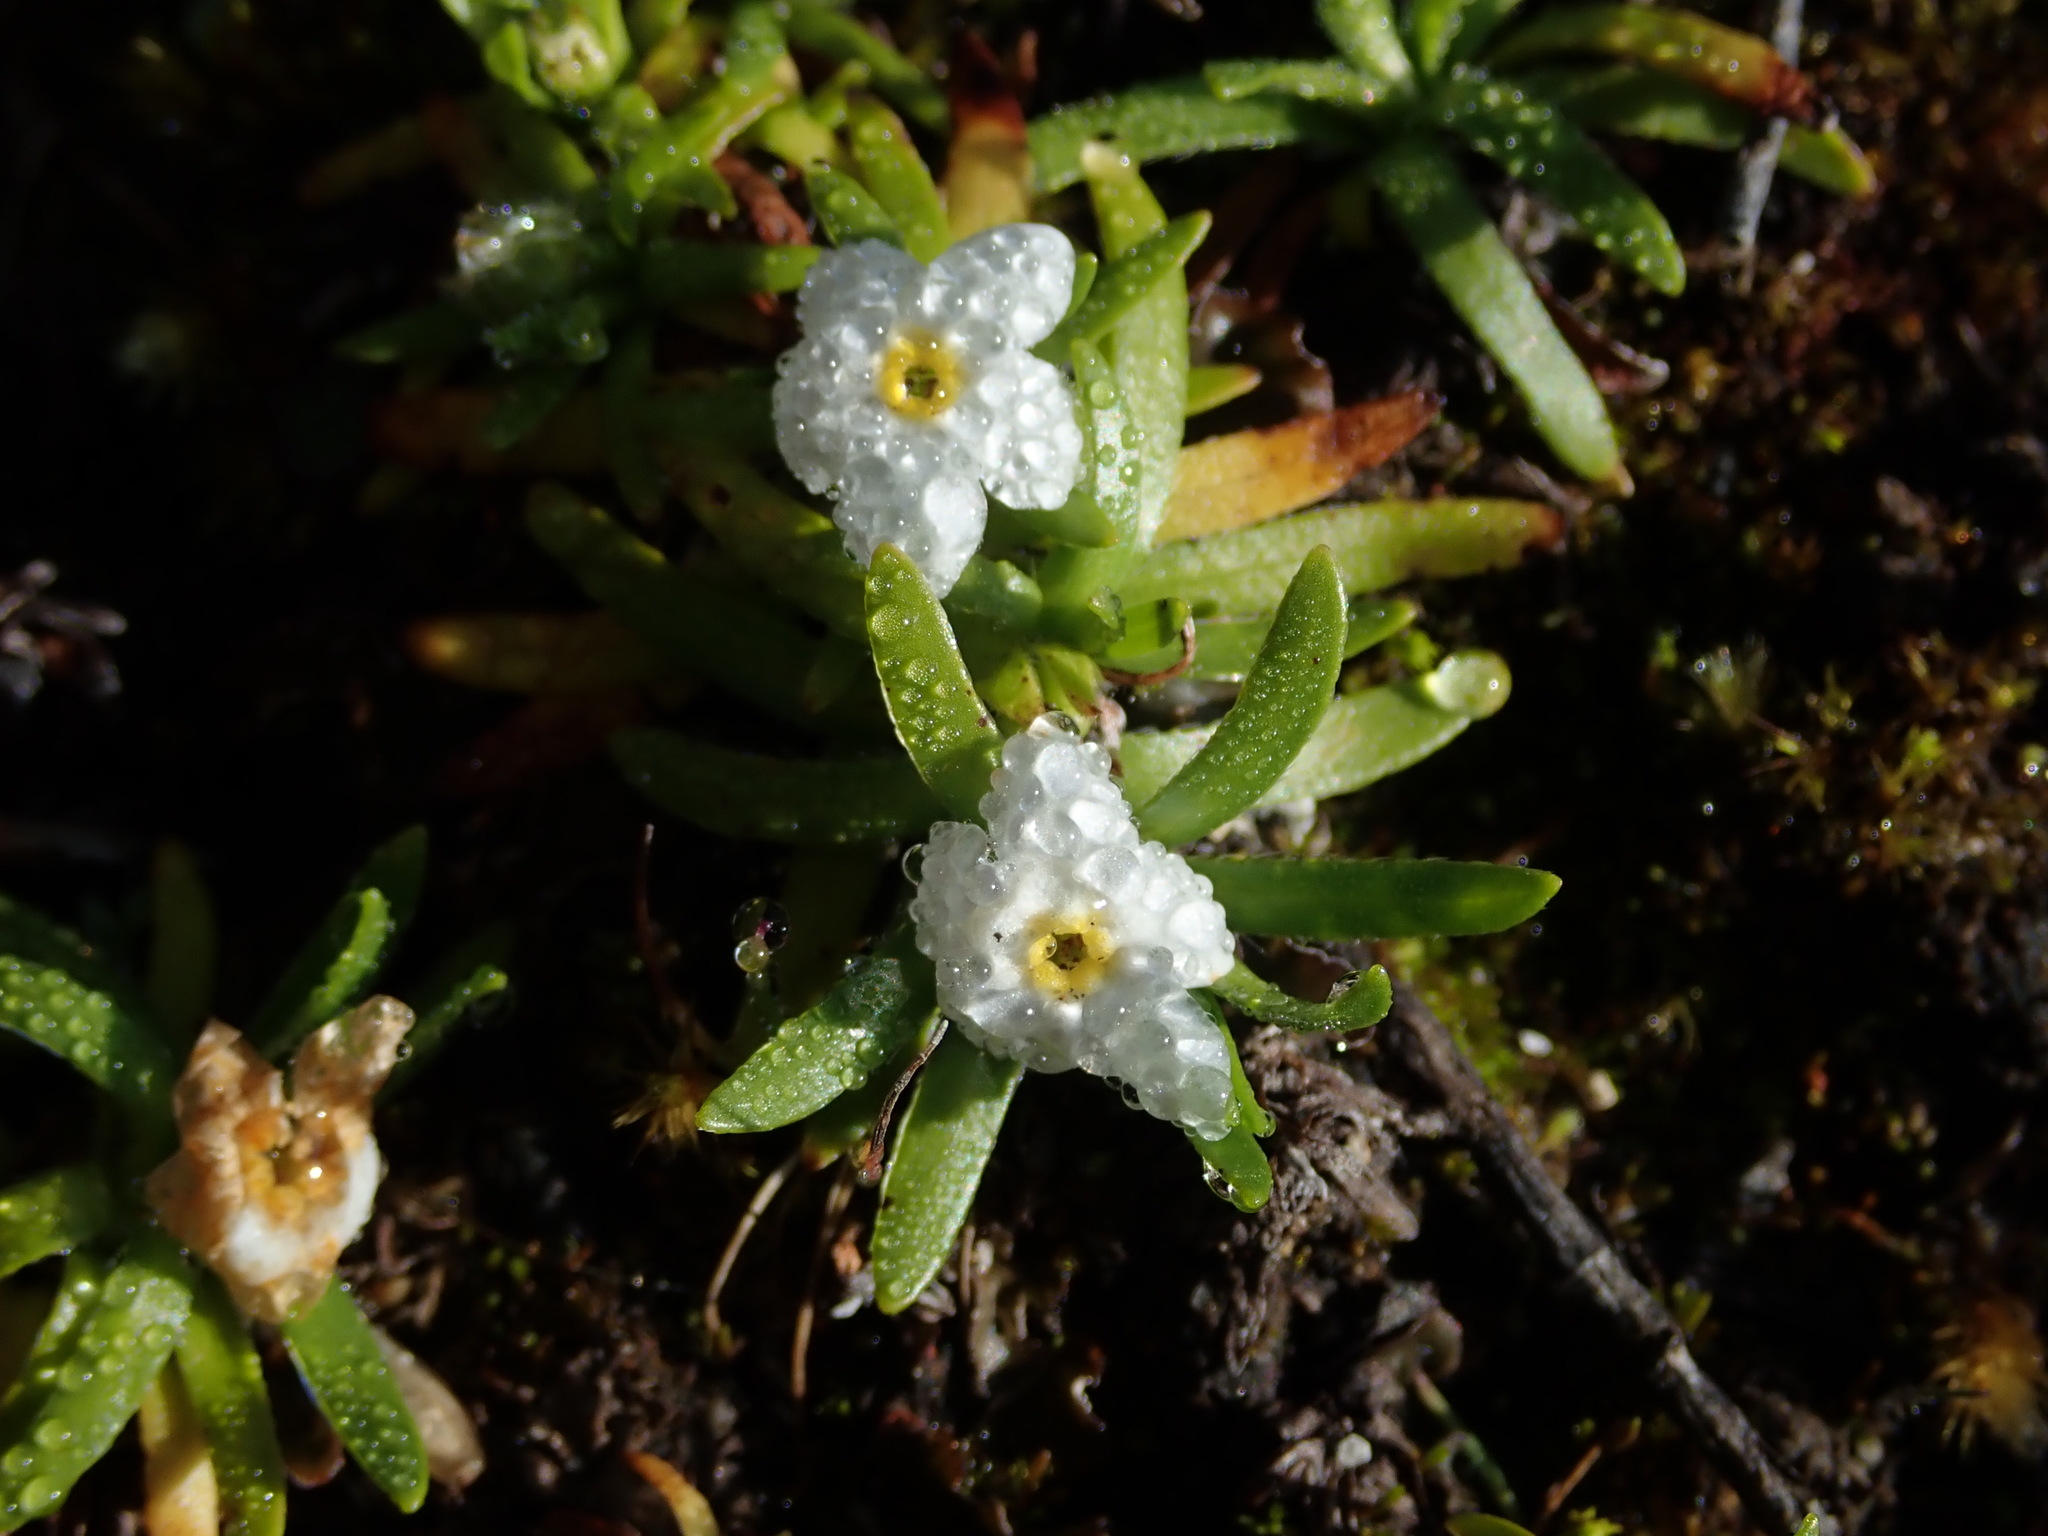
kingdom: Plantae
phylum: Tracheophyta
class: Magnoliopsida
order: Boraginales
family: Boraginaceae
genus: Plagiobothrys
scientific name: Plagiobothrys linifolius
